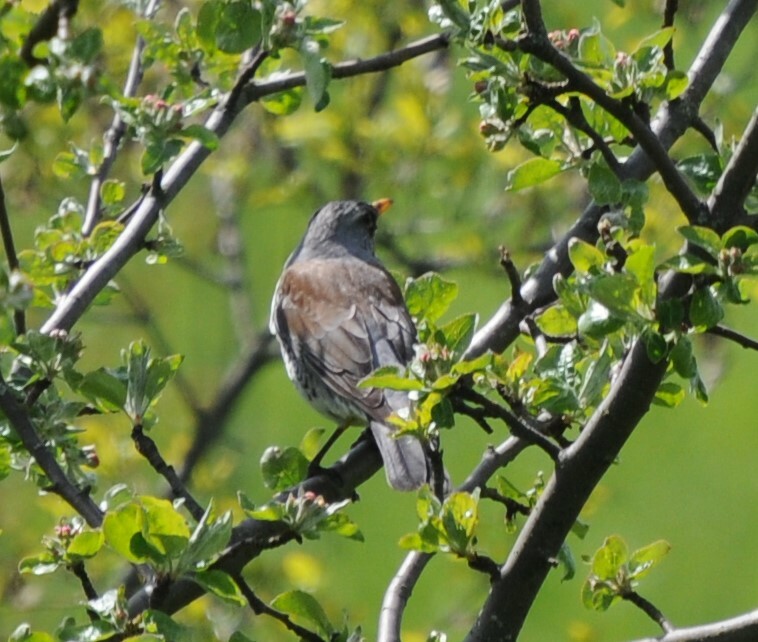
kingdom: Animalia
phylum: Chordata
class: Aves
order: Passeriformes
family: Turdidae
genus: Turdus
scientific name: Turdus pilaris
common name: Fieldfare
